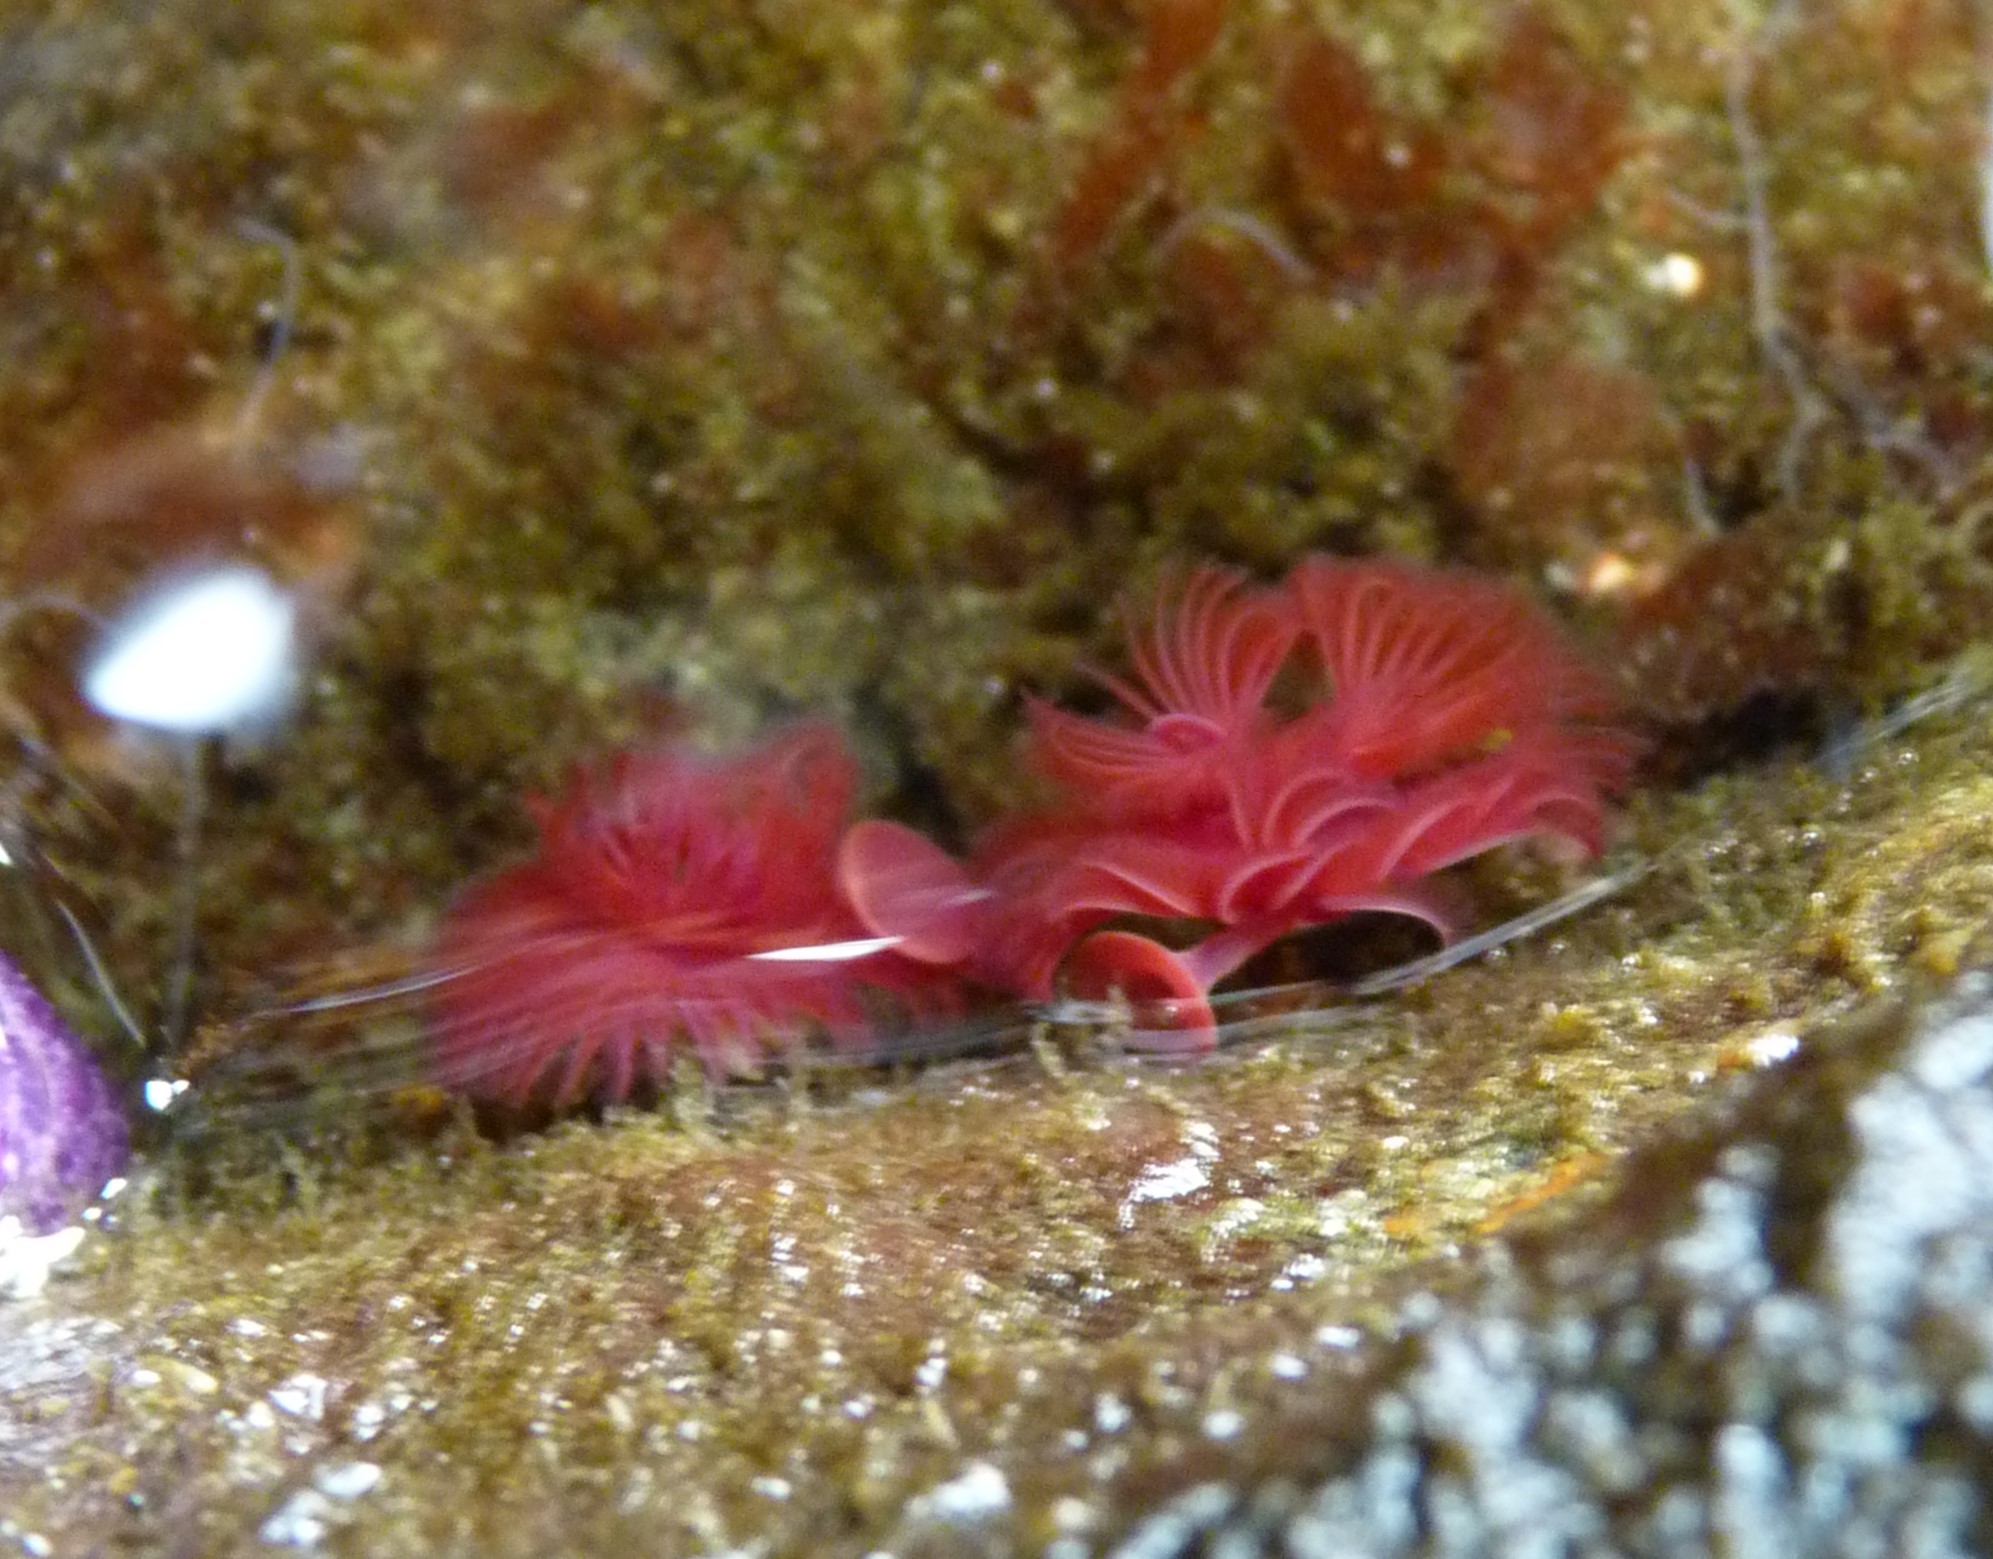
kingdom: Animalia
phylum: Annelida
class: Polychaeta
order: Sabellida
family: Serpulidae
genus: Serpula
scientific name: Serpula columbiana
